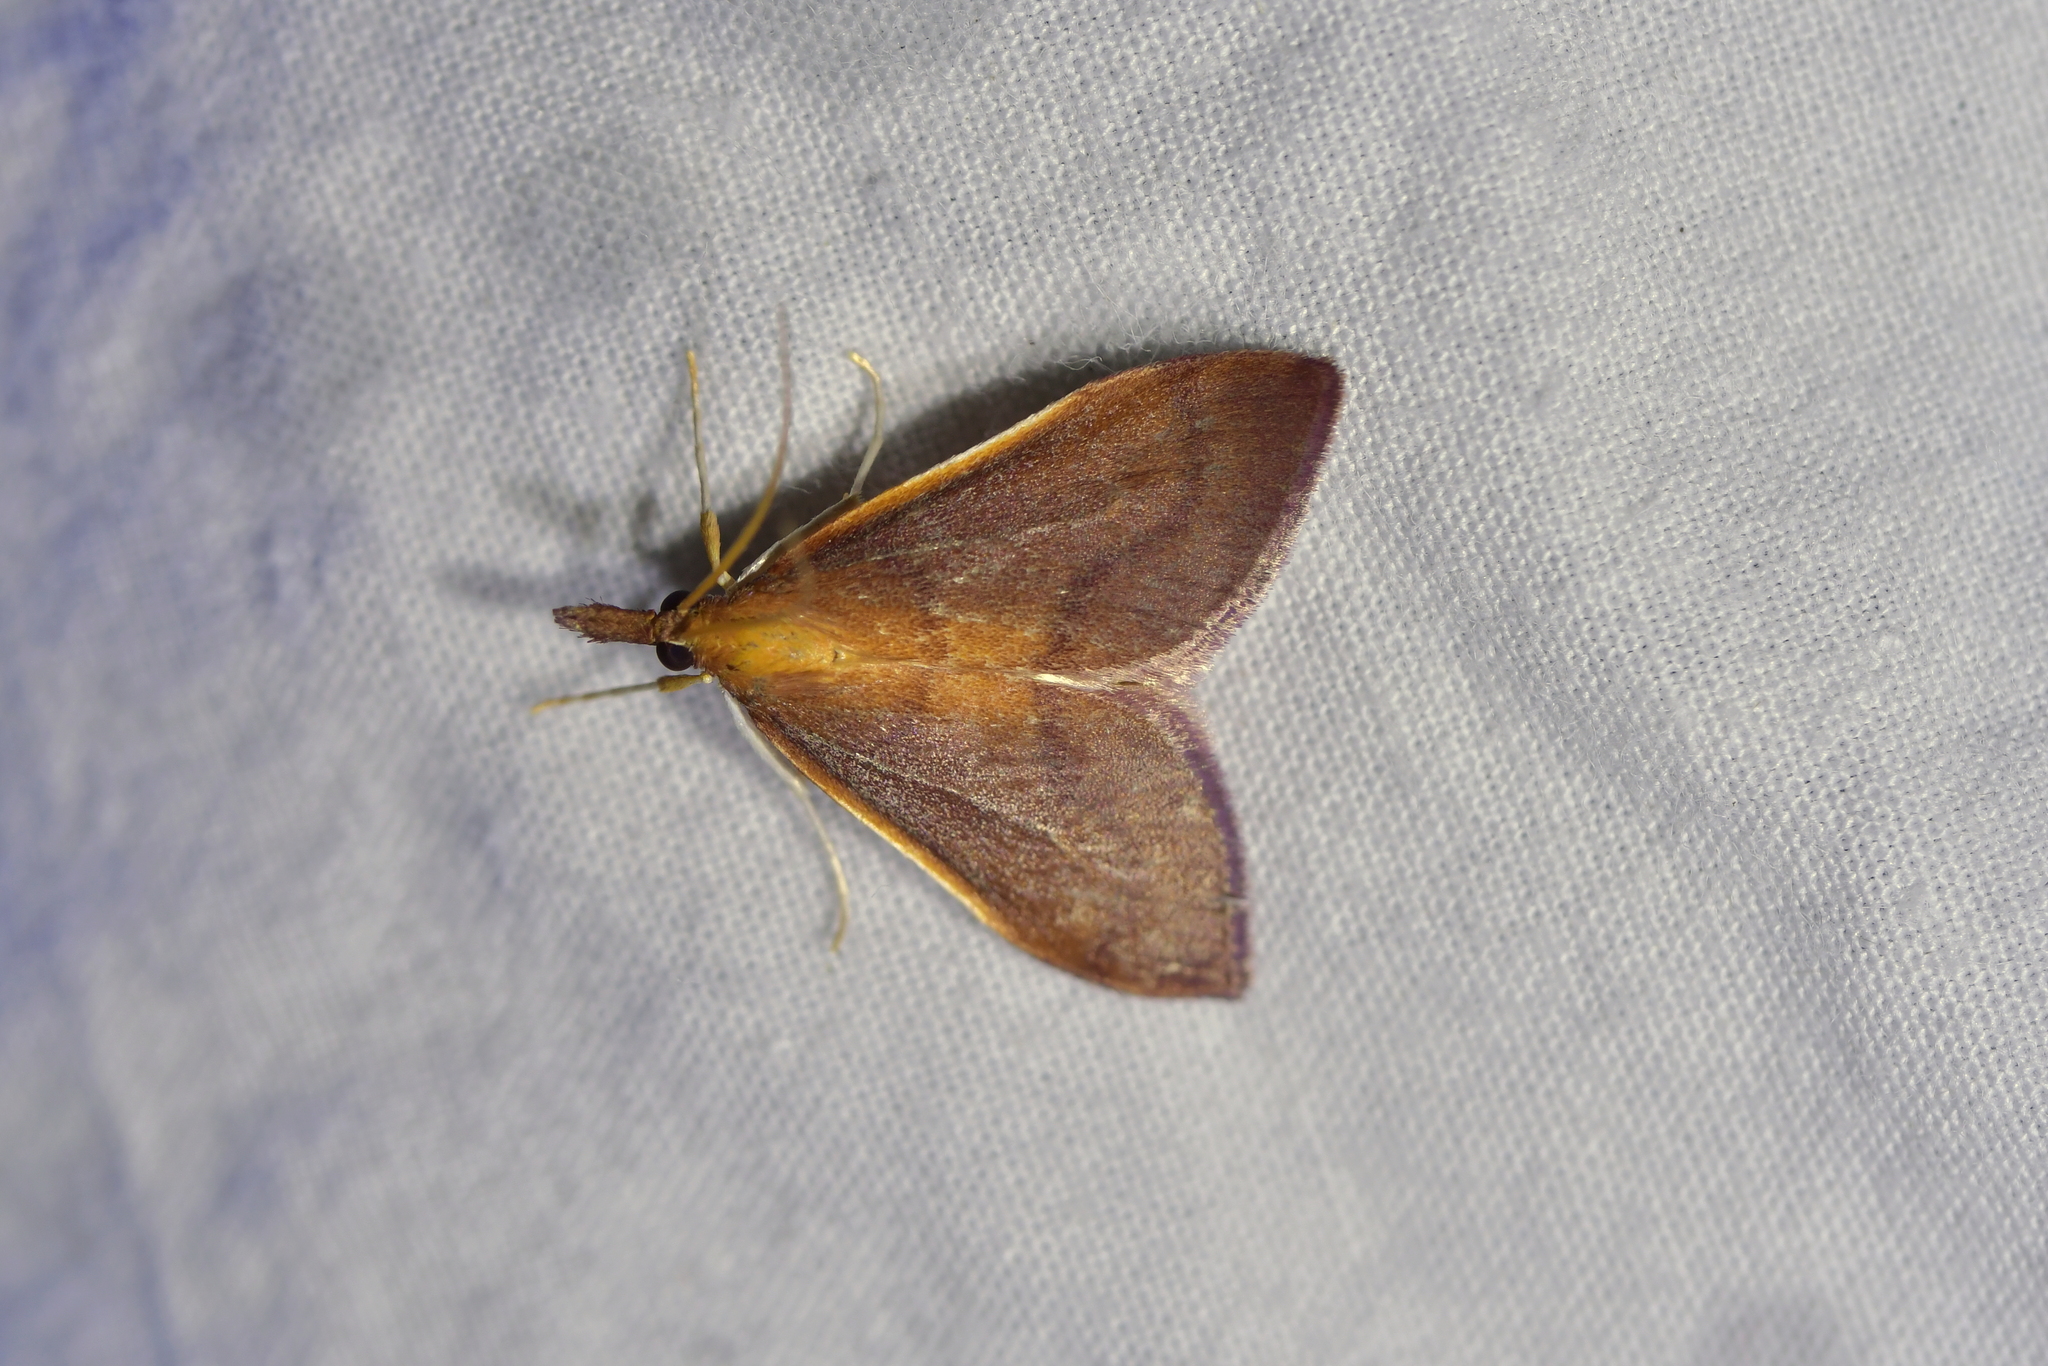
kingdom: Animalia
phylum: Arthropoda
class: Insecta
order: Lepidoptera
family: Crambidae
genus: Udea
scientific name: Udea daiclesalis
